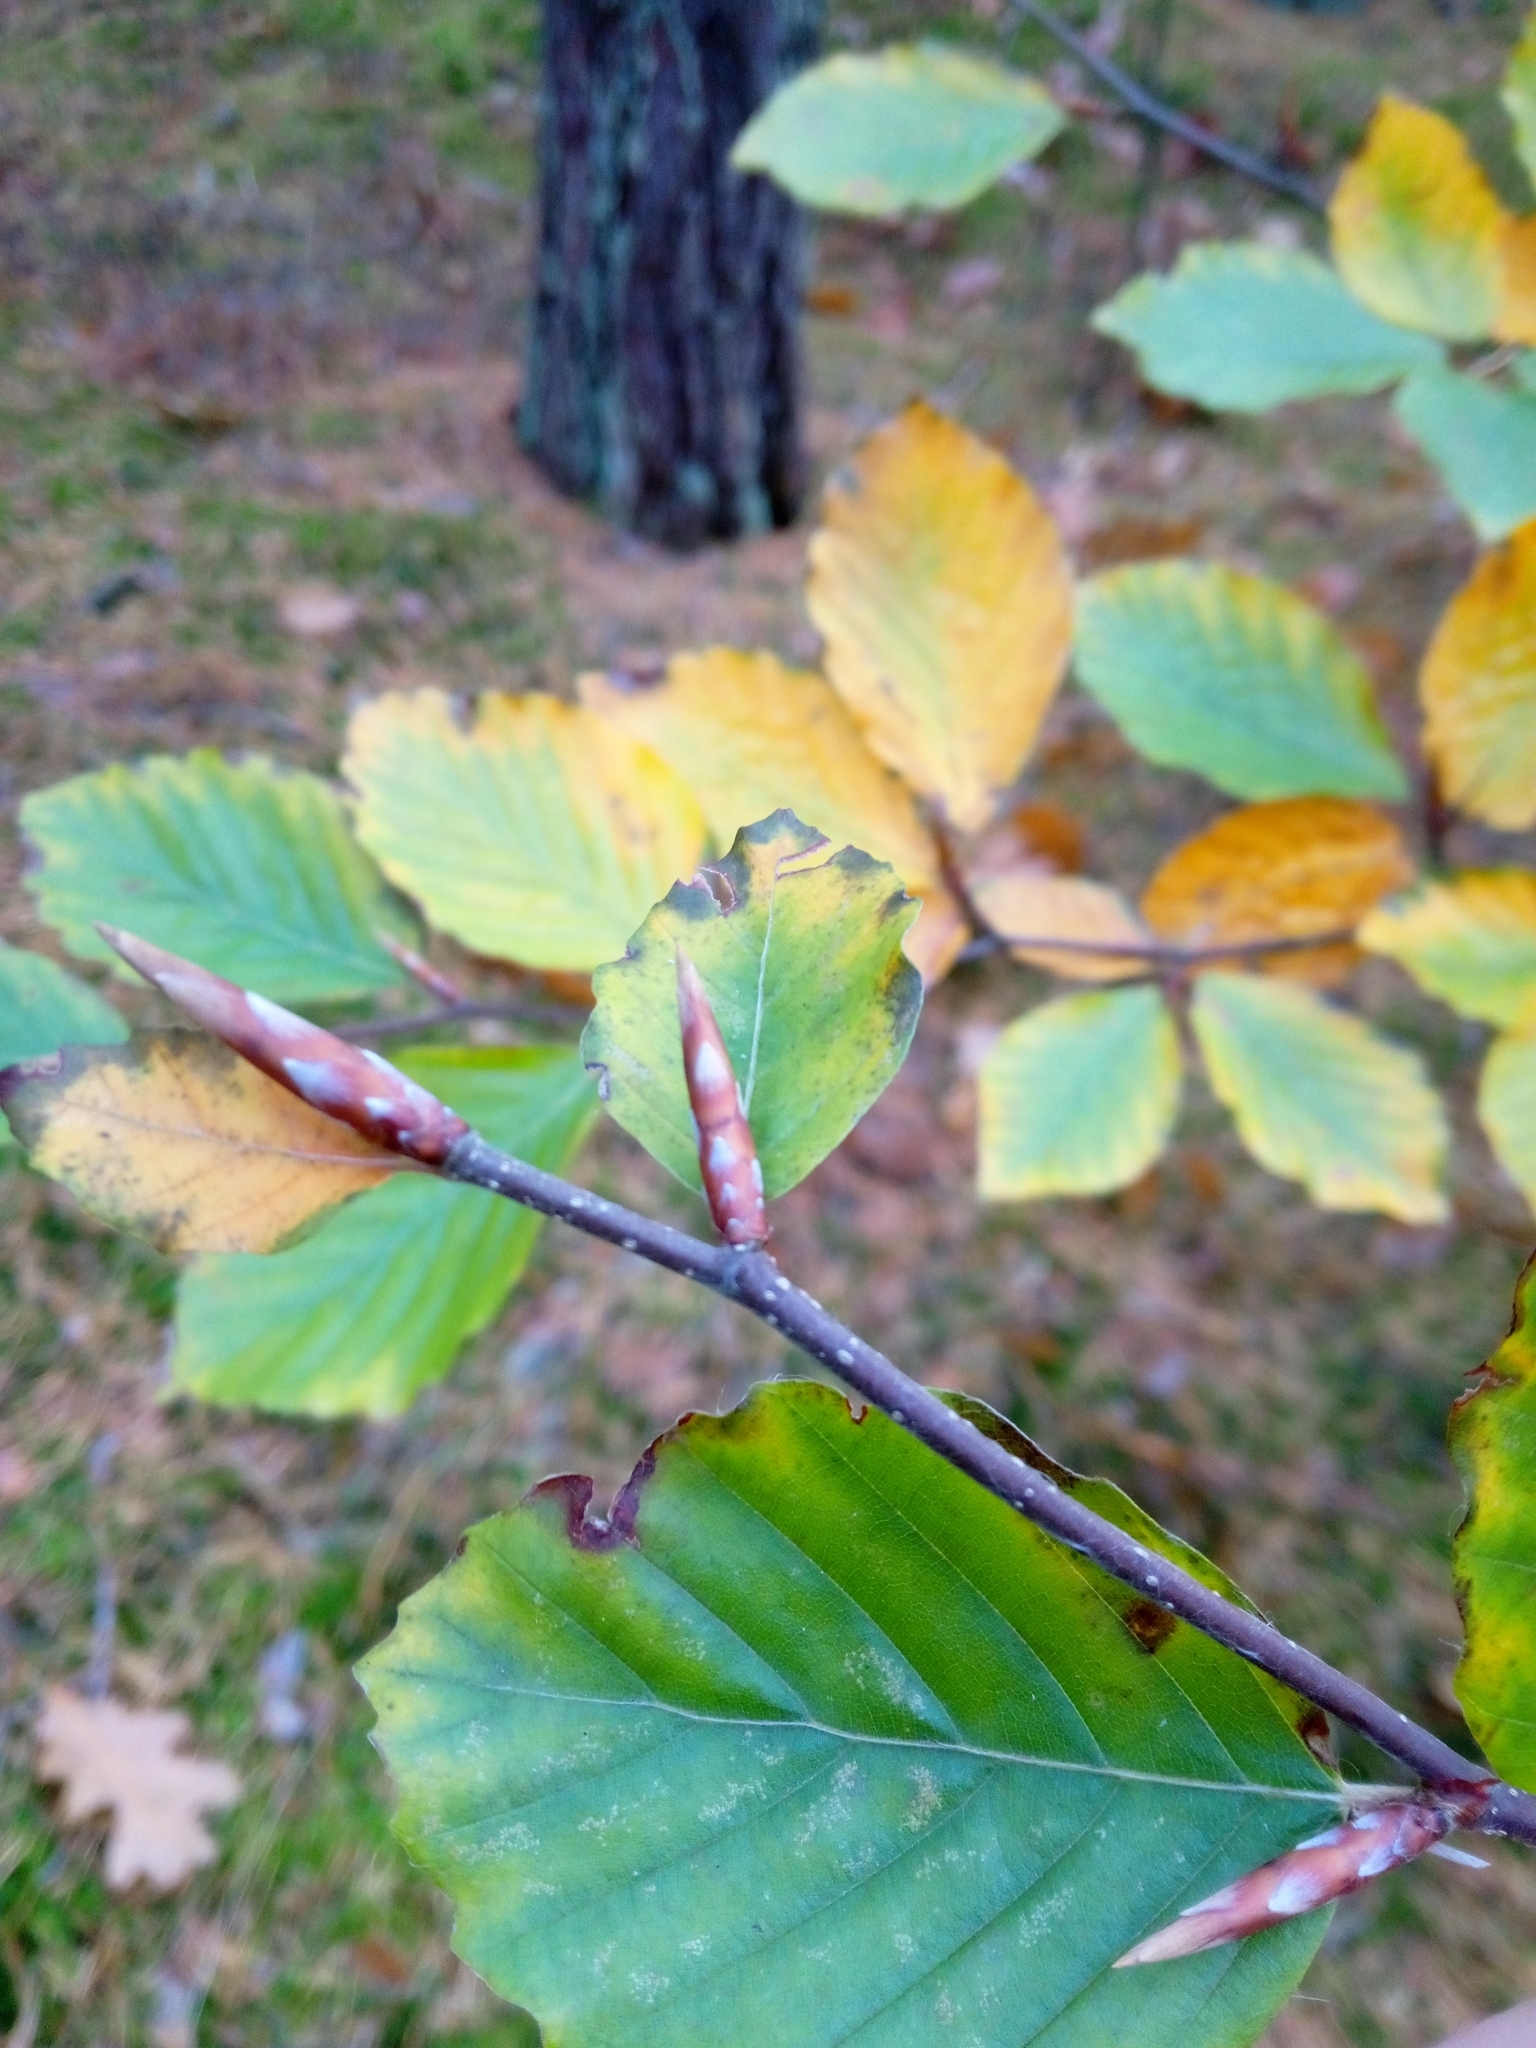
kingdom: Plantae
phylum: Tracheophyta
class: Magnoliopsida
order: Fagales
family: Fagaceae
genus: Fagus
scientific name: Fagus sylvatica
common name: Beech
